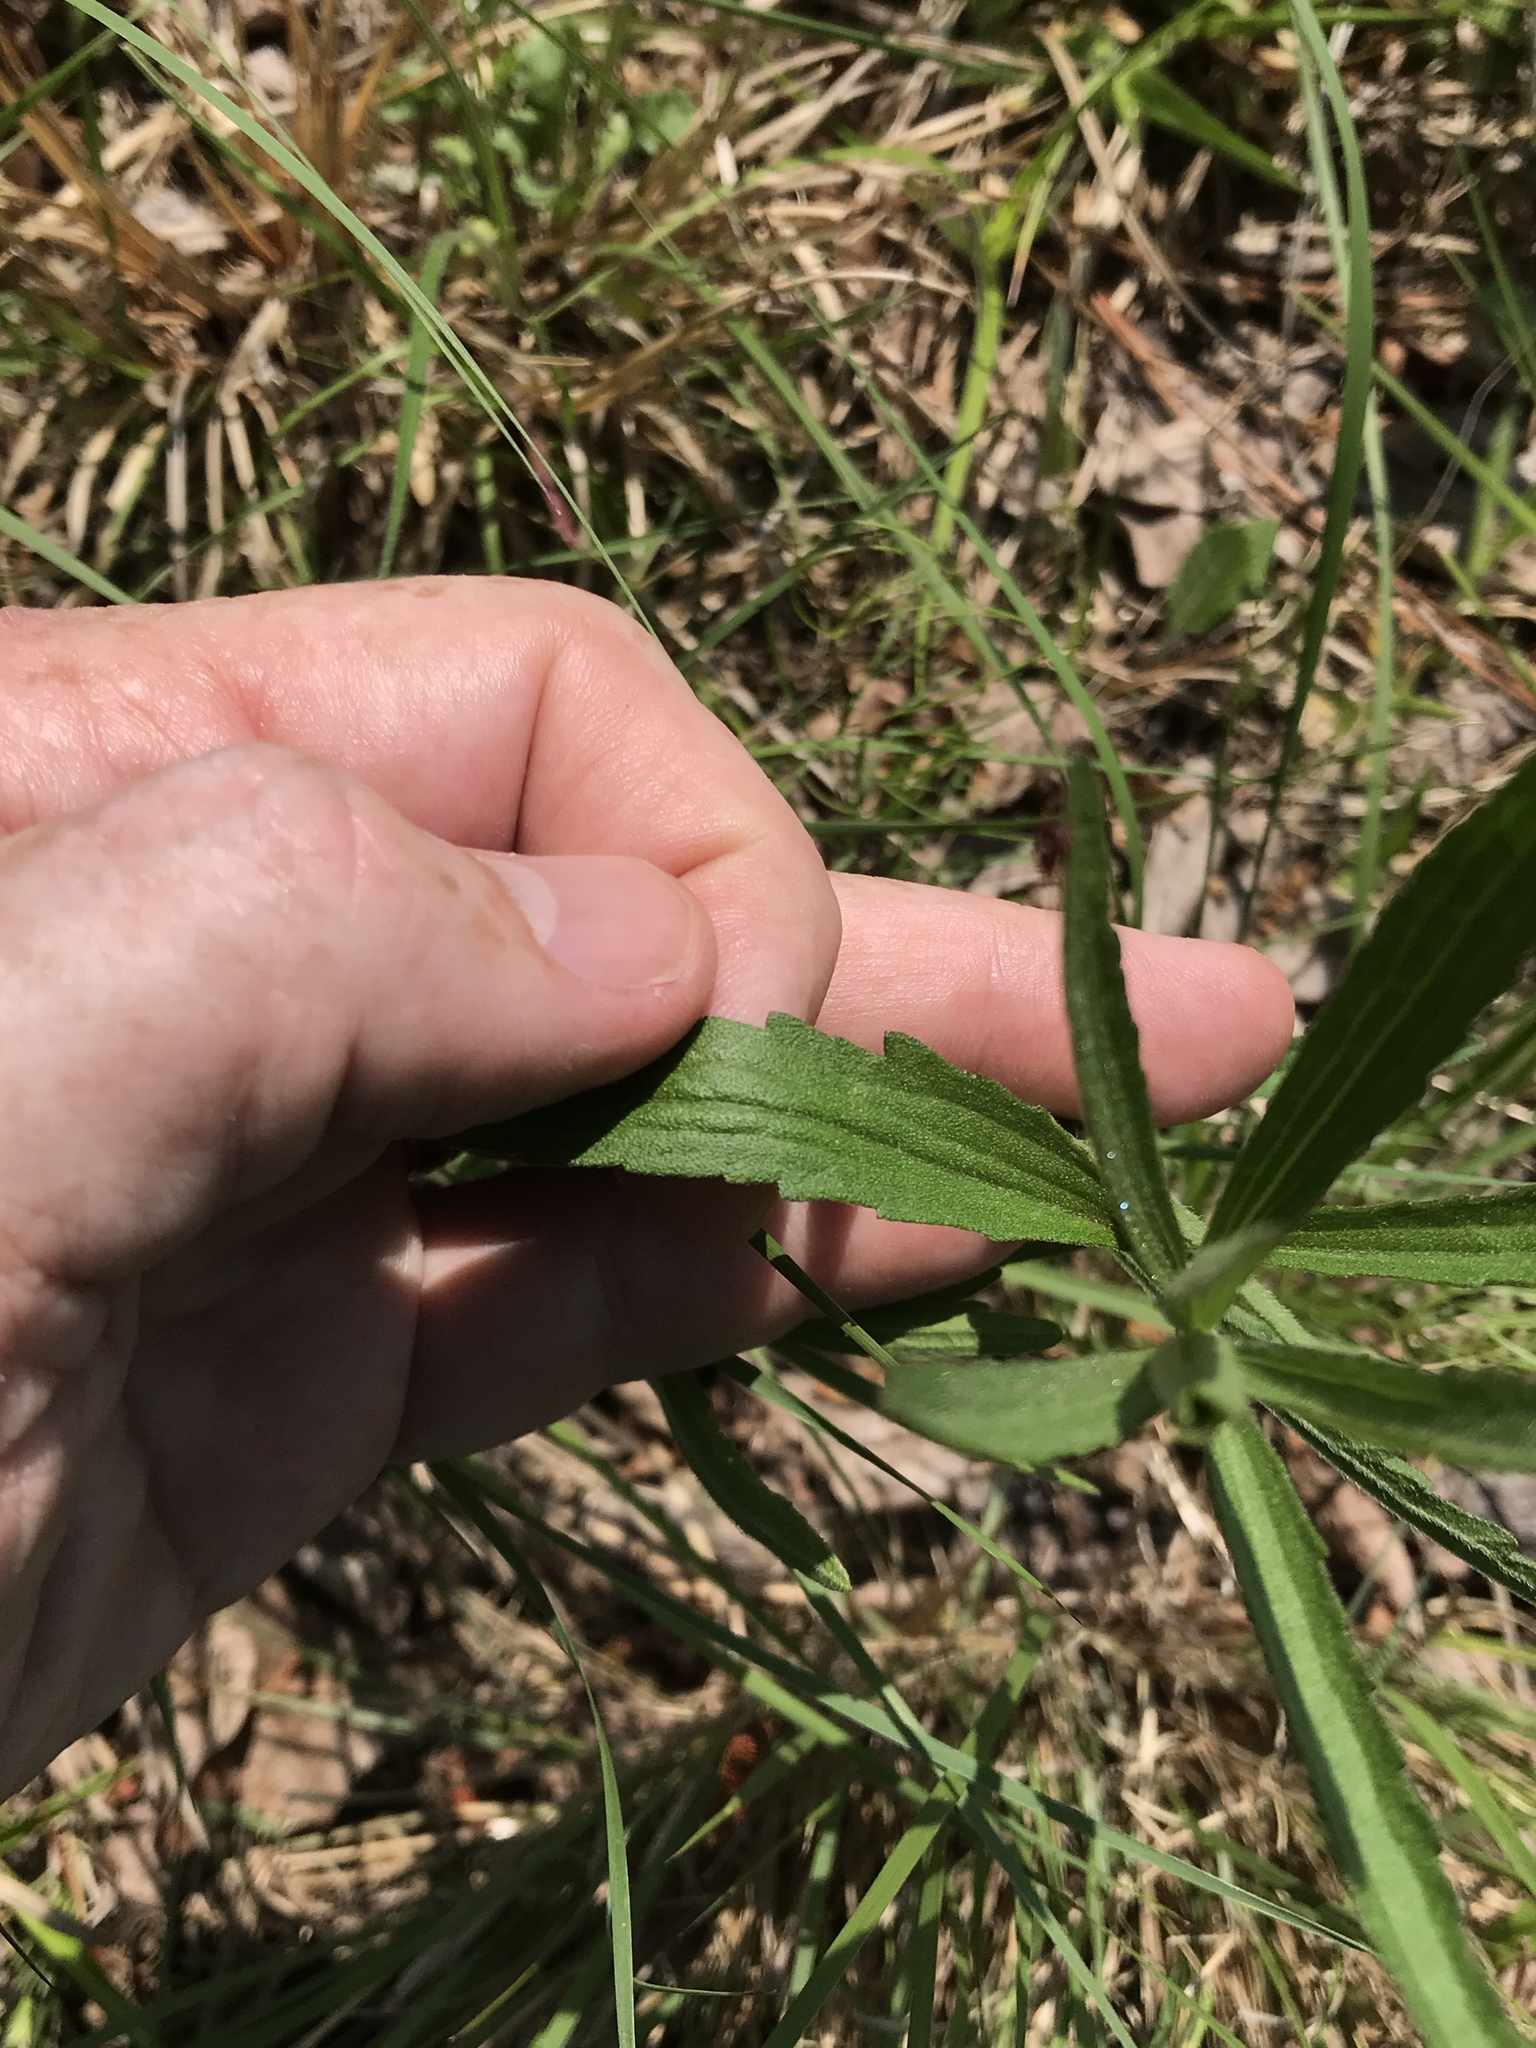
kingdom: Plantae
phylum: Tracheophyta
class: Magnoliopsida
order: Asterales
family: Asteraceae
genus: Eupatorium
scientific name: Eupatorium torreyanum
